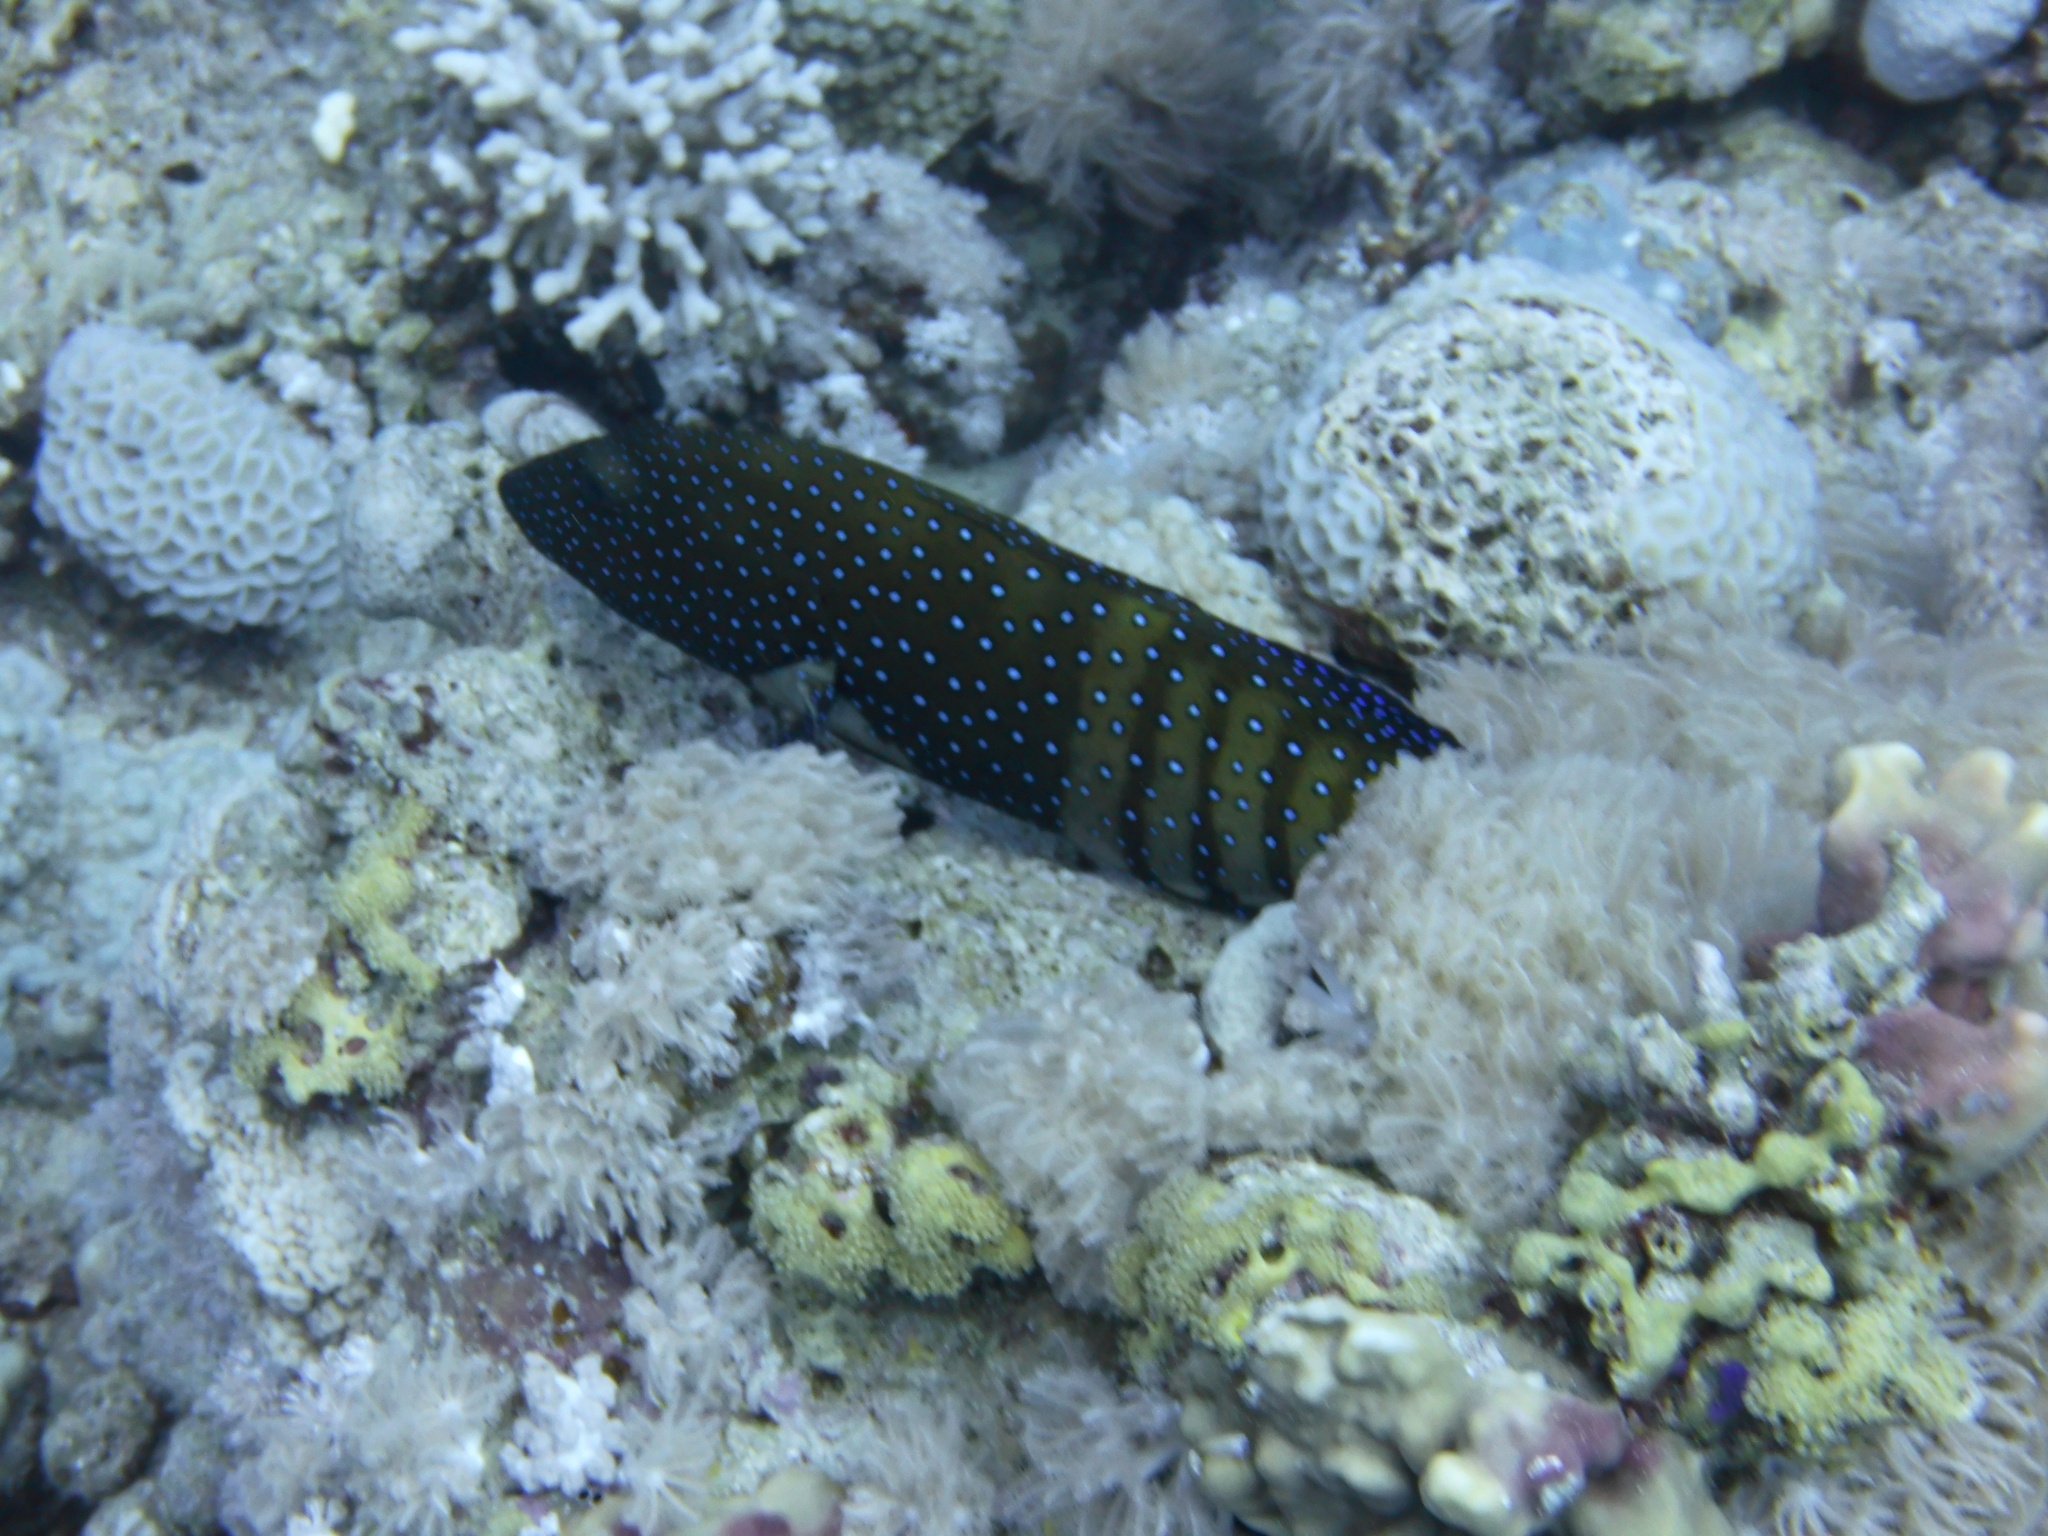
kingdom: Animalia
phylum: Chordata
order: Perciformes
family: Serranidae
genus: Cephalopholis
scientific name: Cephalopholis argus
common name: Peacock grouper
